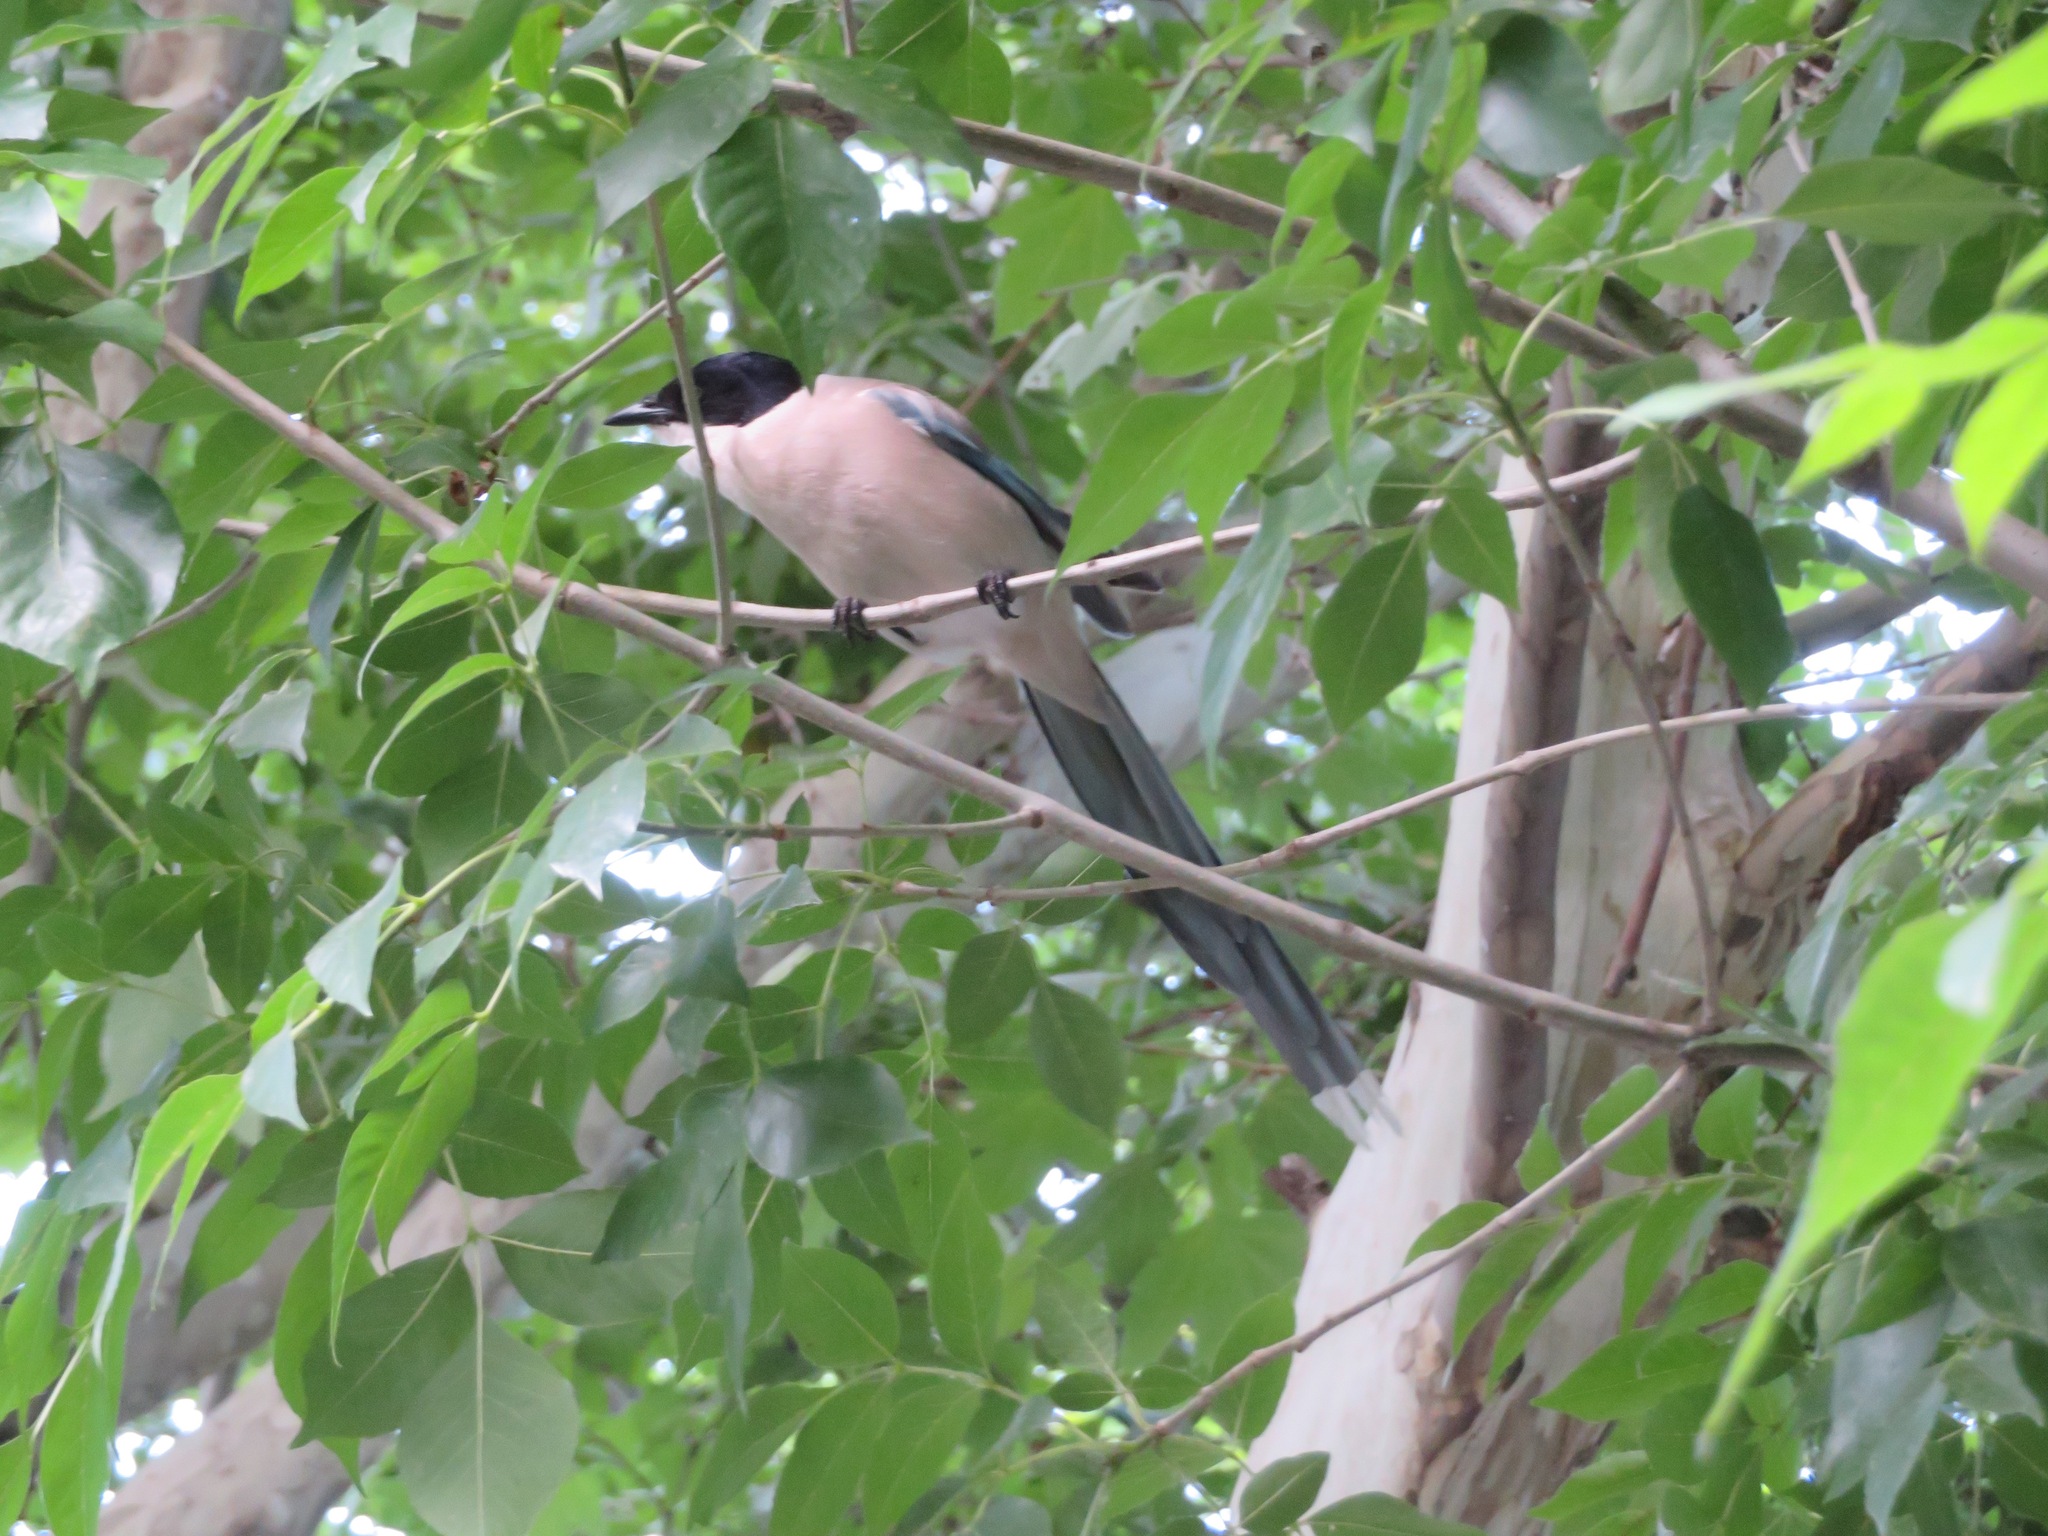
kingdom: Animalia
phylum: Chordata
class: Aves
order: Passeriformes
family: Corvidae
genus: Cyanopica
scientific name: Cyanopica cyanus
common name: Azure-winged magpie
